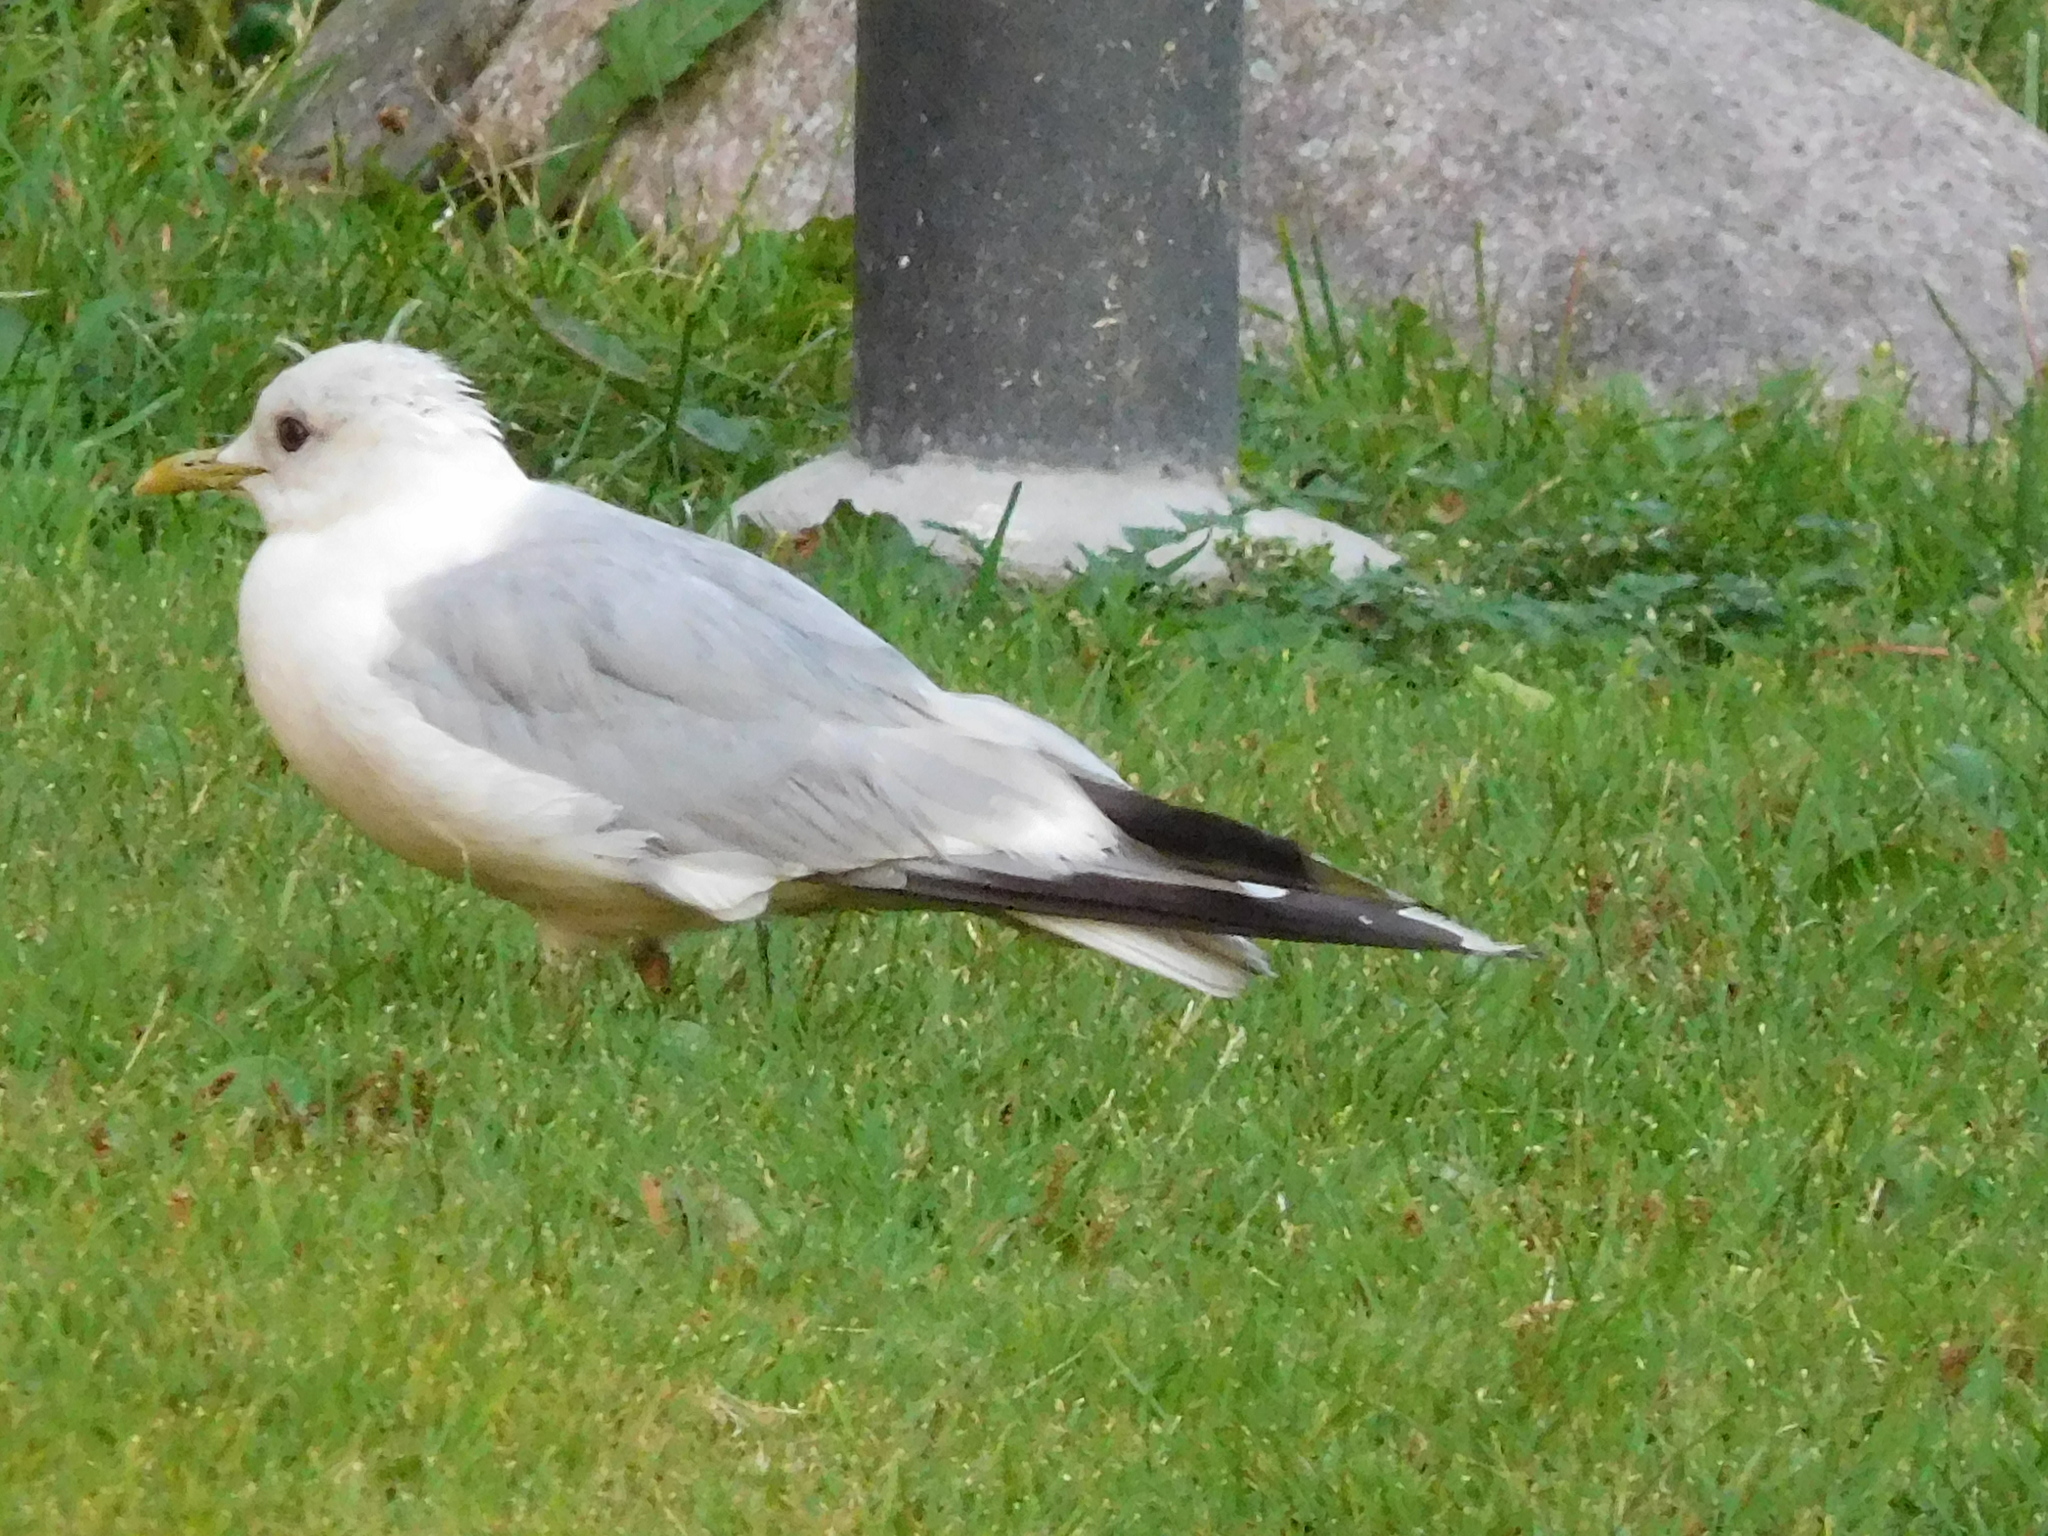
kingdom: Animalia
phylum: Chordata
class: Aves
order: Charadriiformes
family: Laridae
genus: Larus
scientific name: Larus canus
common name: Mew gull
